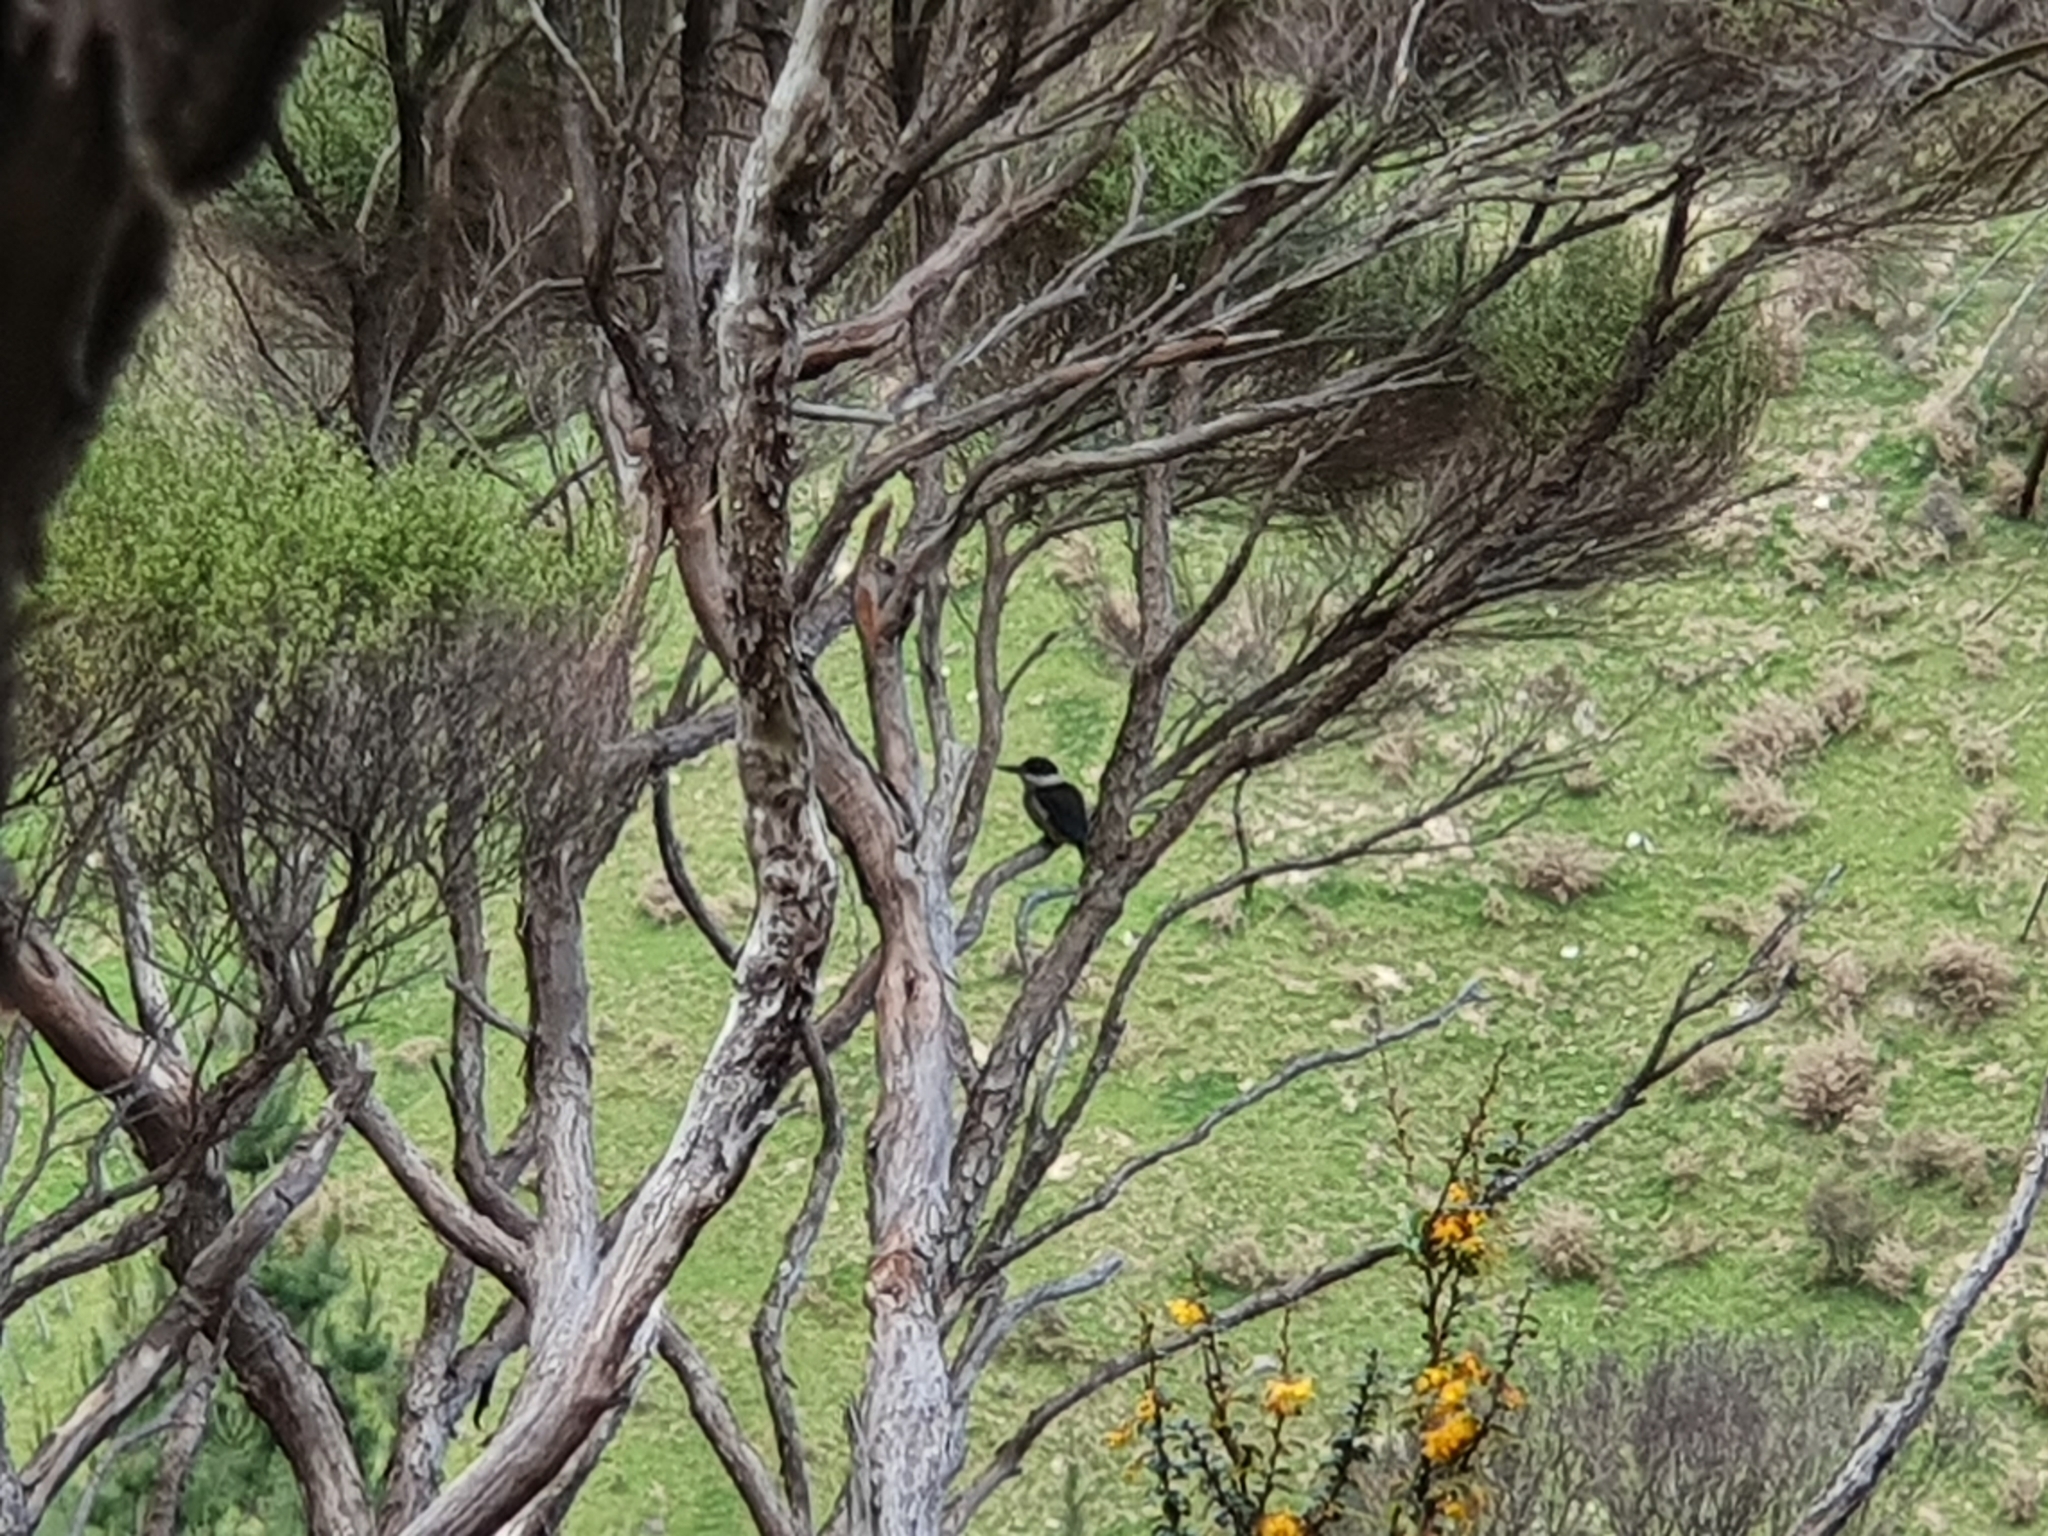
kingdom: Animalia
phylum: Chordata
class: Aves
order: Coraciiformes
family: Alcedinidae
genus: Todiramphus
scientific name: Todiramphus sanctus
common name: Sacred kingfisher
